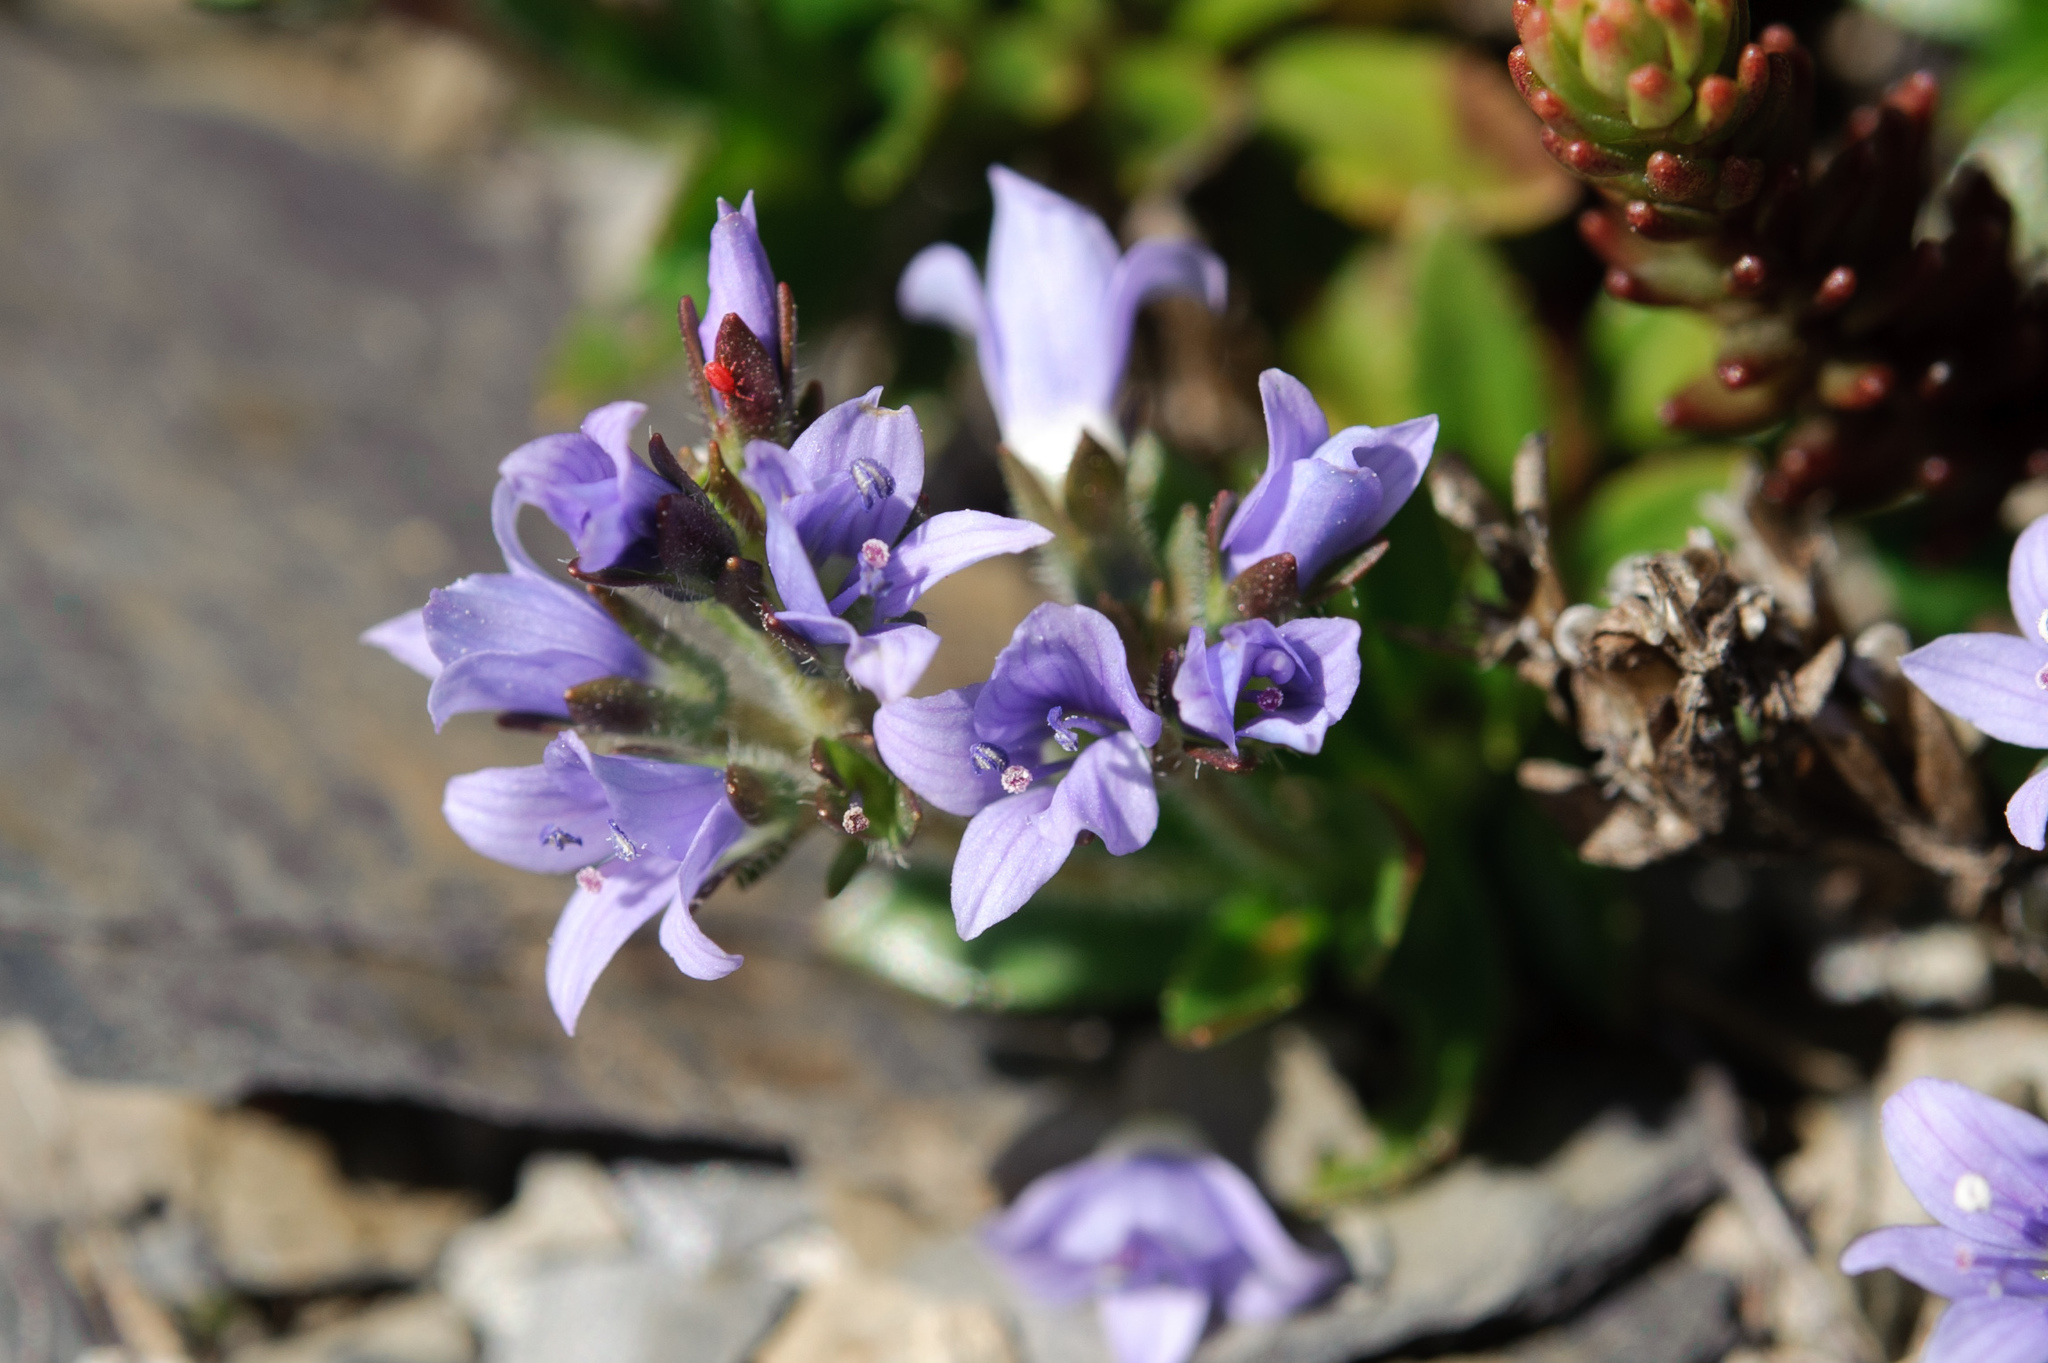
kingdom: Plantae
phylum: Tracheophyta
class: Magnoliopsida
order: Lamiales
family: Plantaginaceae
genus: Veronica
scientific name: Veronica morrisonicola
